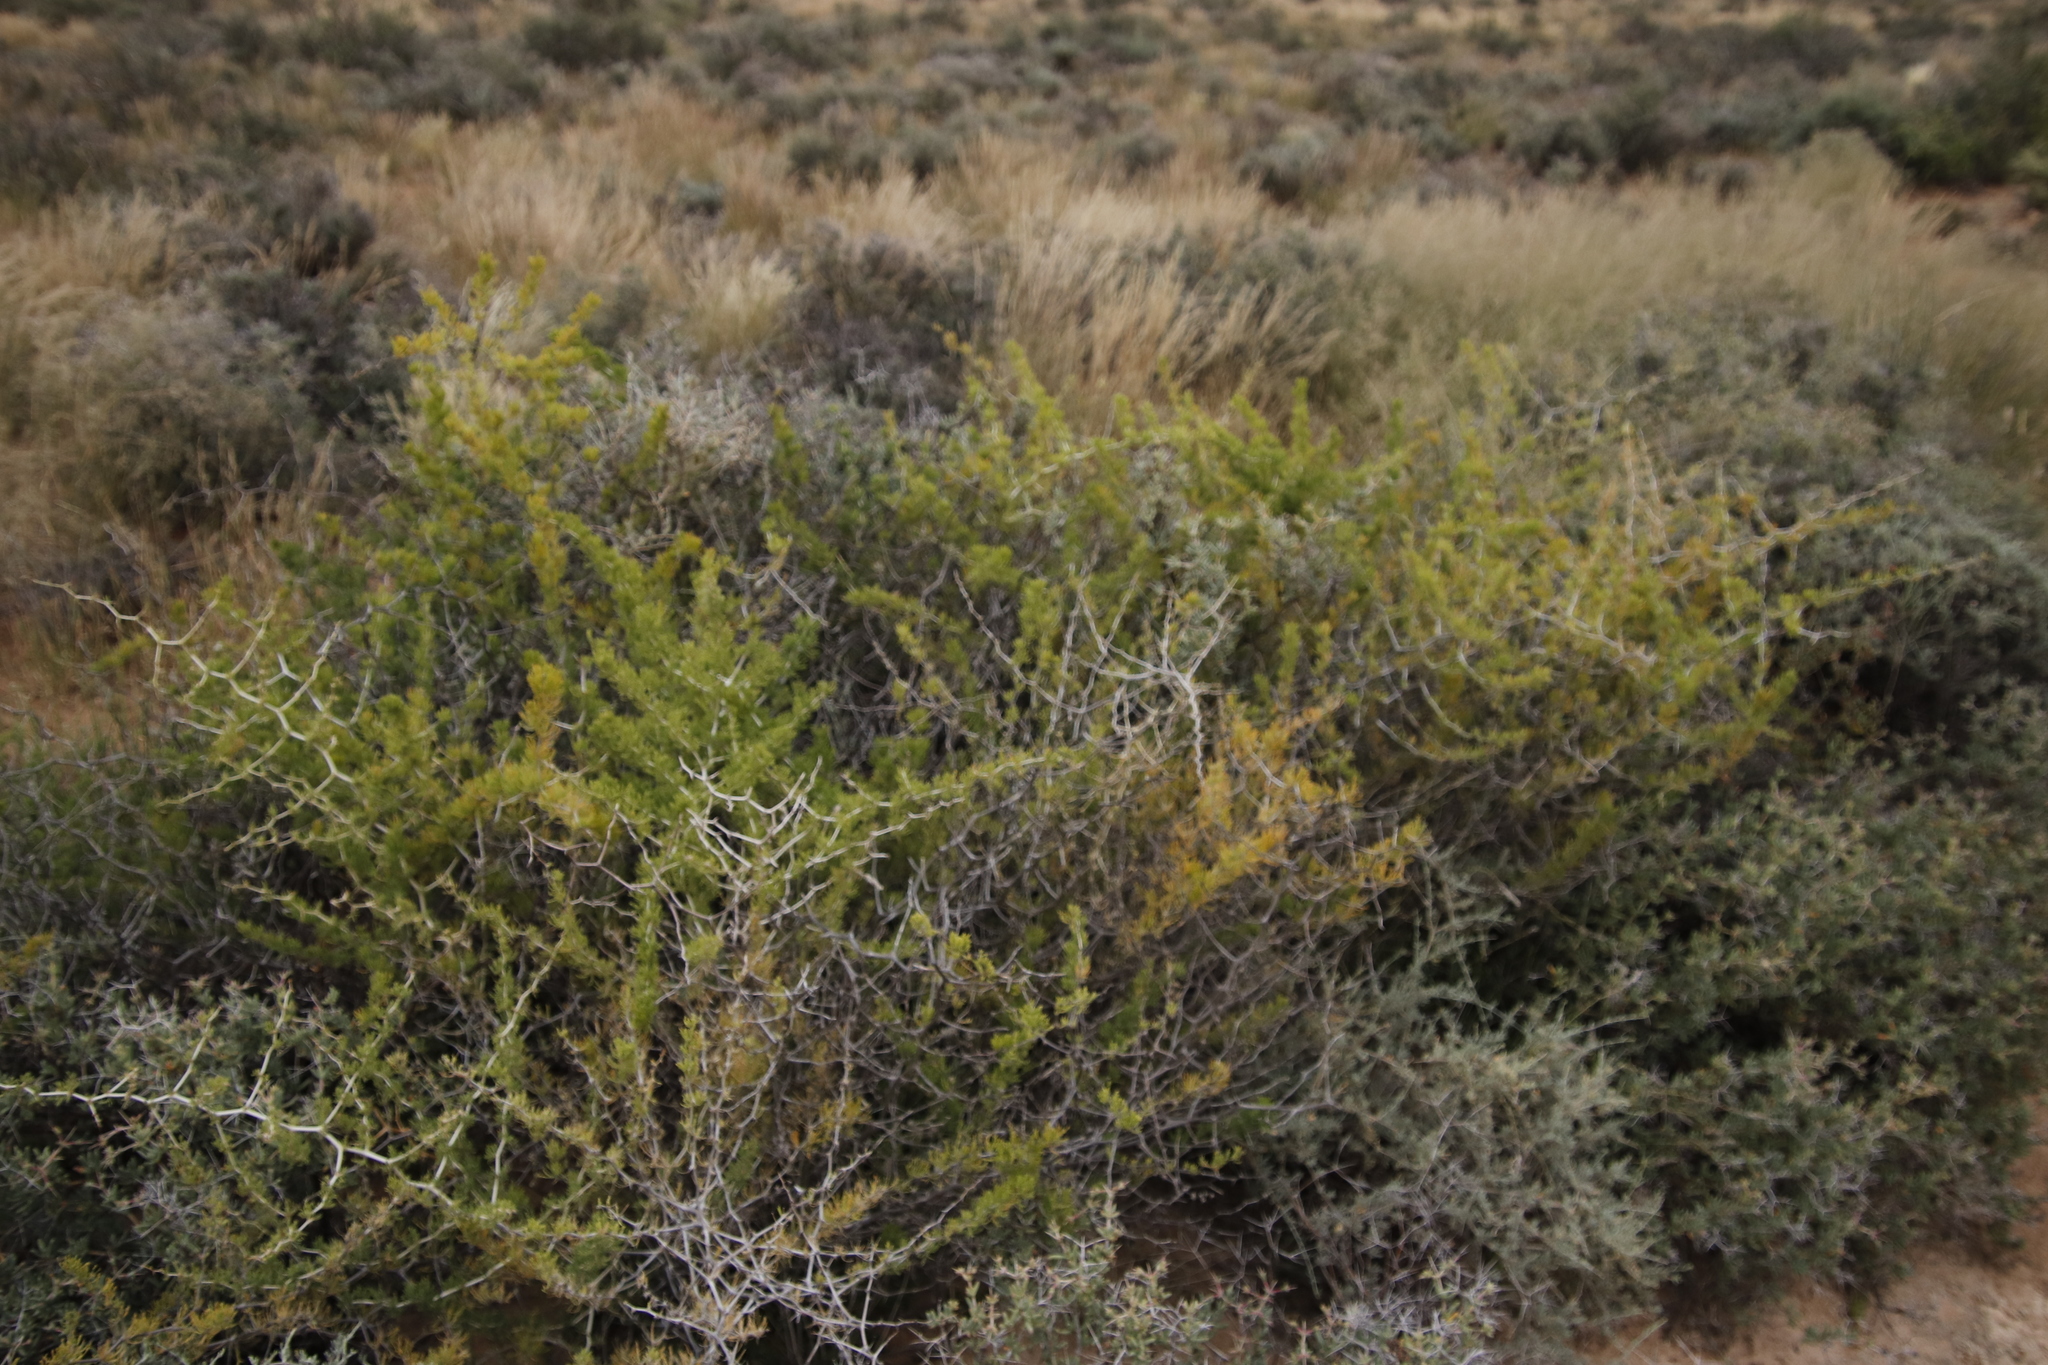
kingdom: Plantae
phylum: Tracheophyta
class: Liliopsida
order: Asparagales
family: Asparagaceae
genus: Asparagus
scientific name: Asparagus burchellii
